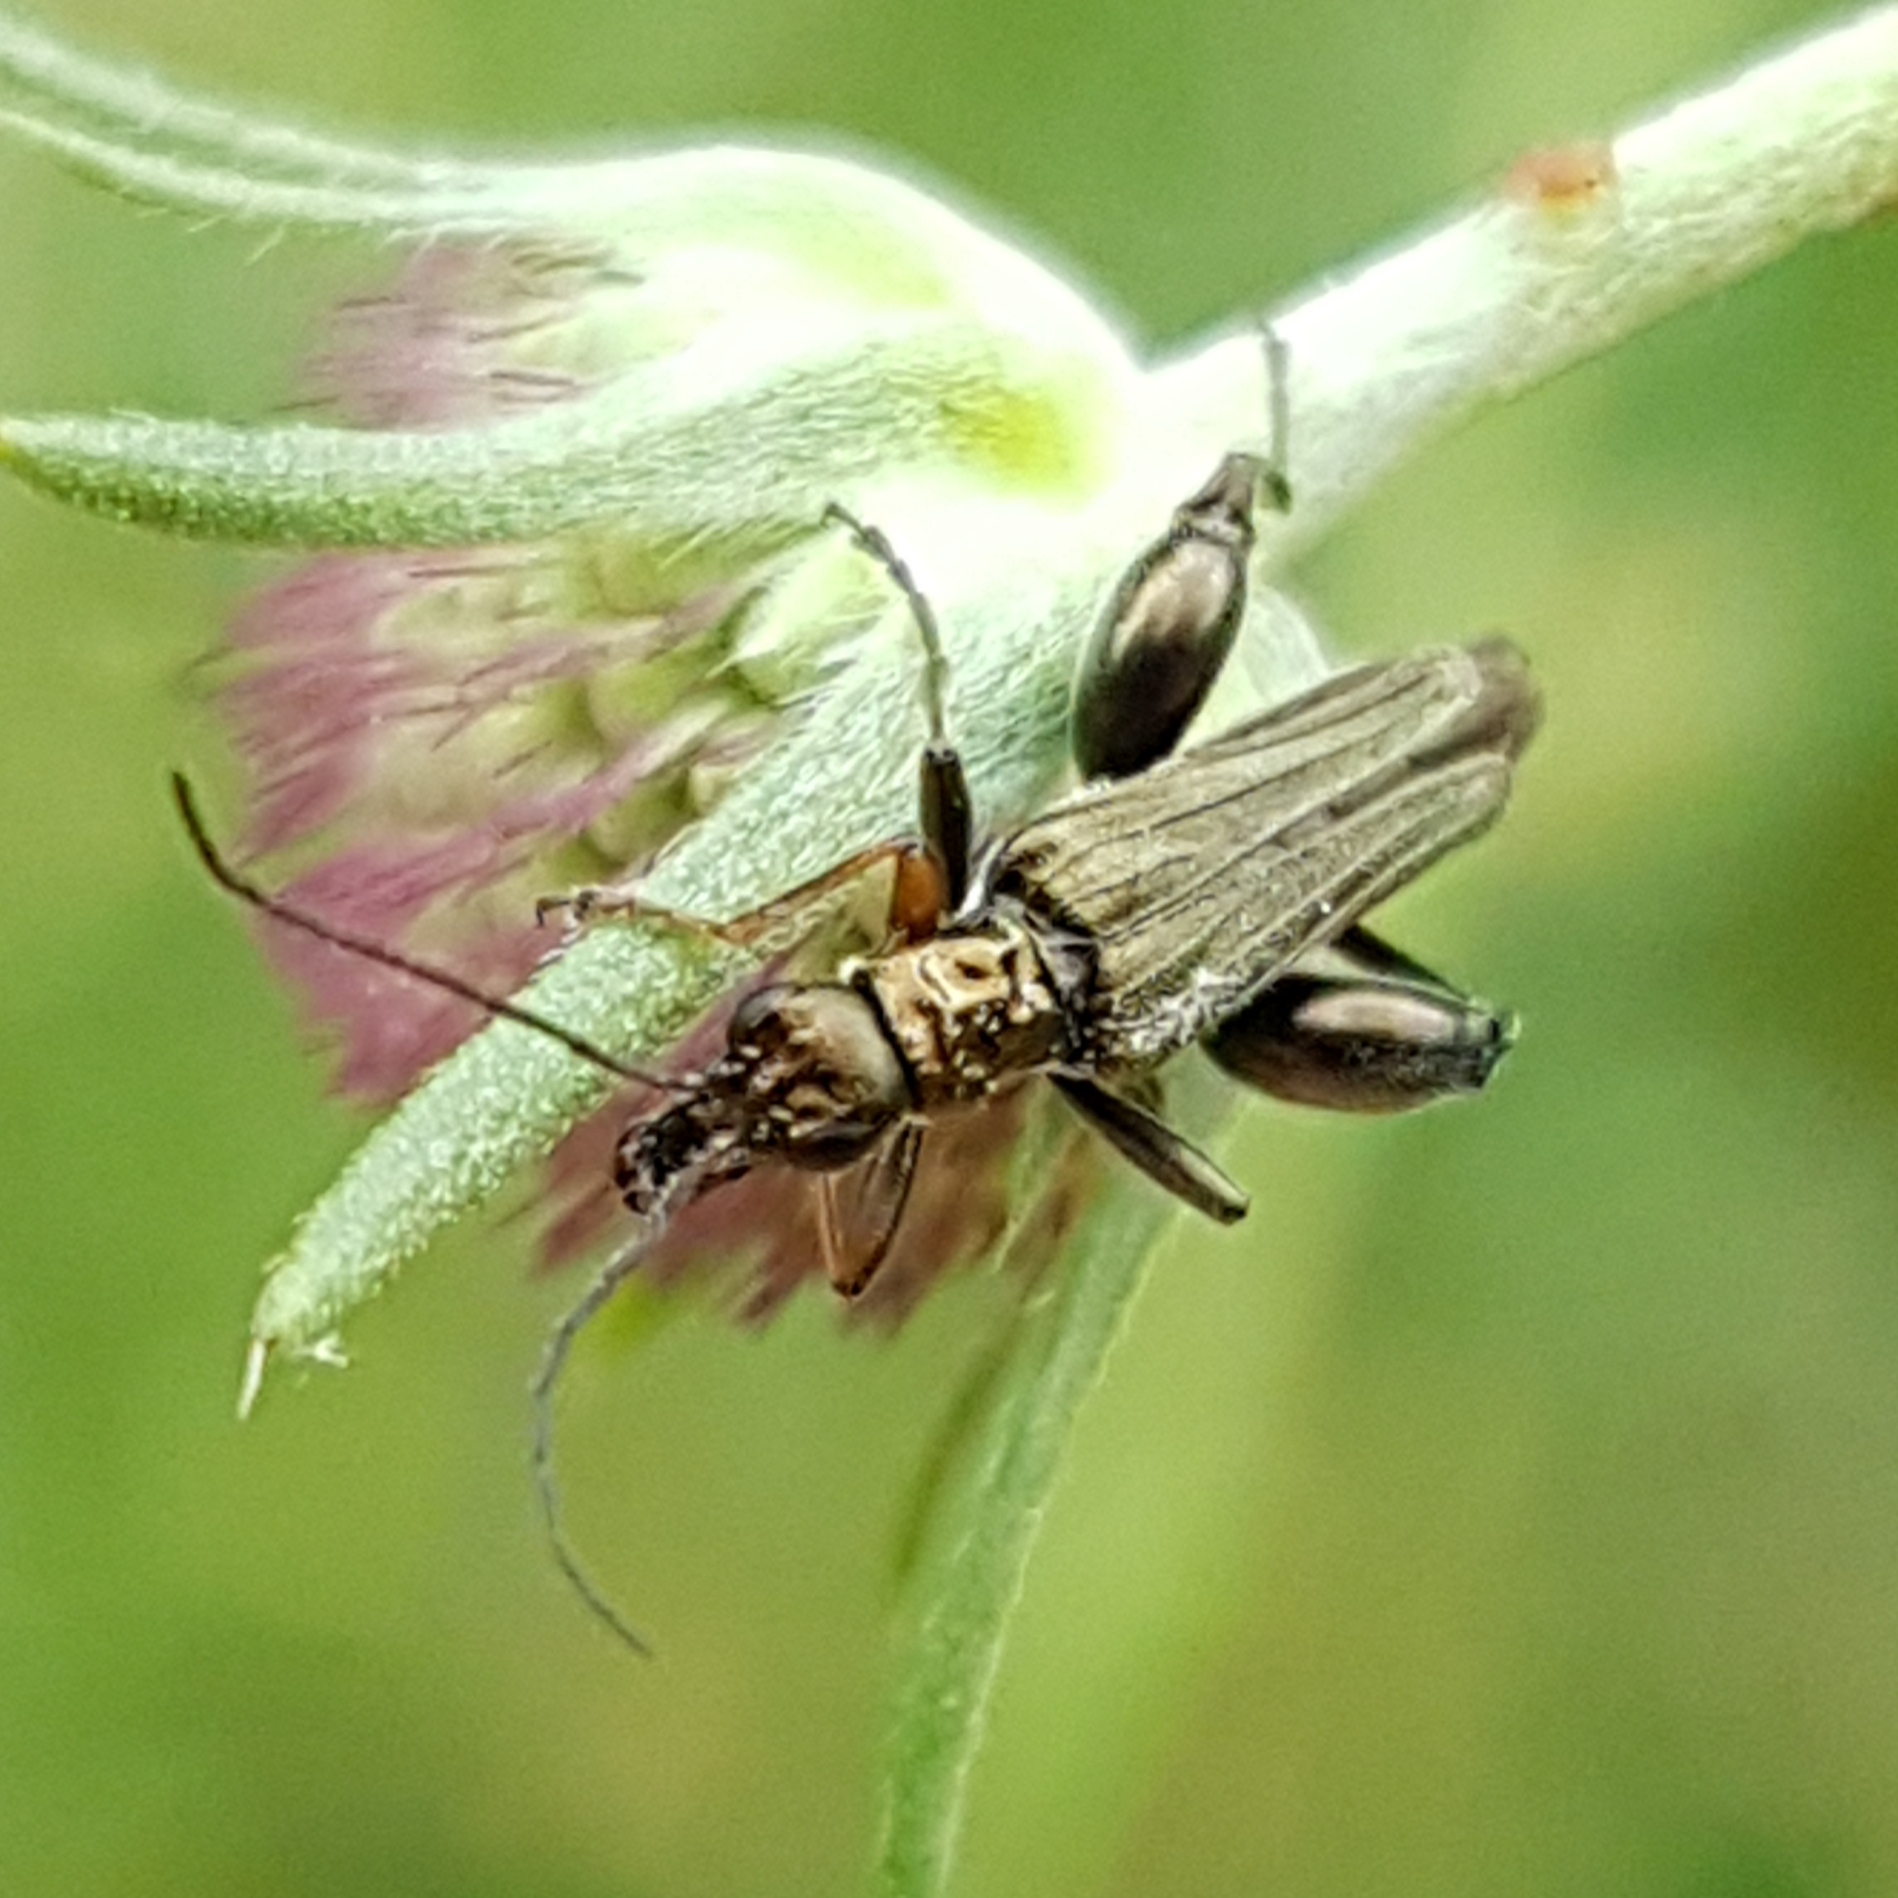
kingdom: Animalia
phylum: Arthropoda
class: Insecta
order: Coleoptera
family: Oedemeridae
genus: Oedemera
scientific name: Oedemera flavipes
